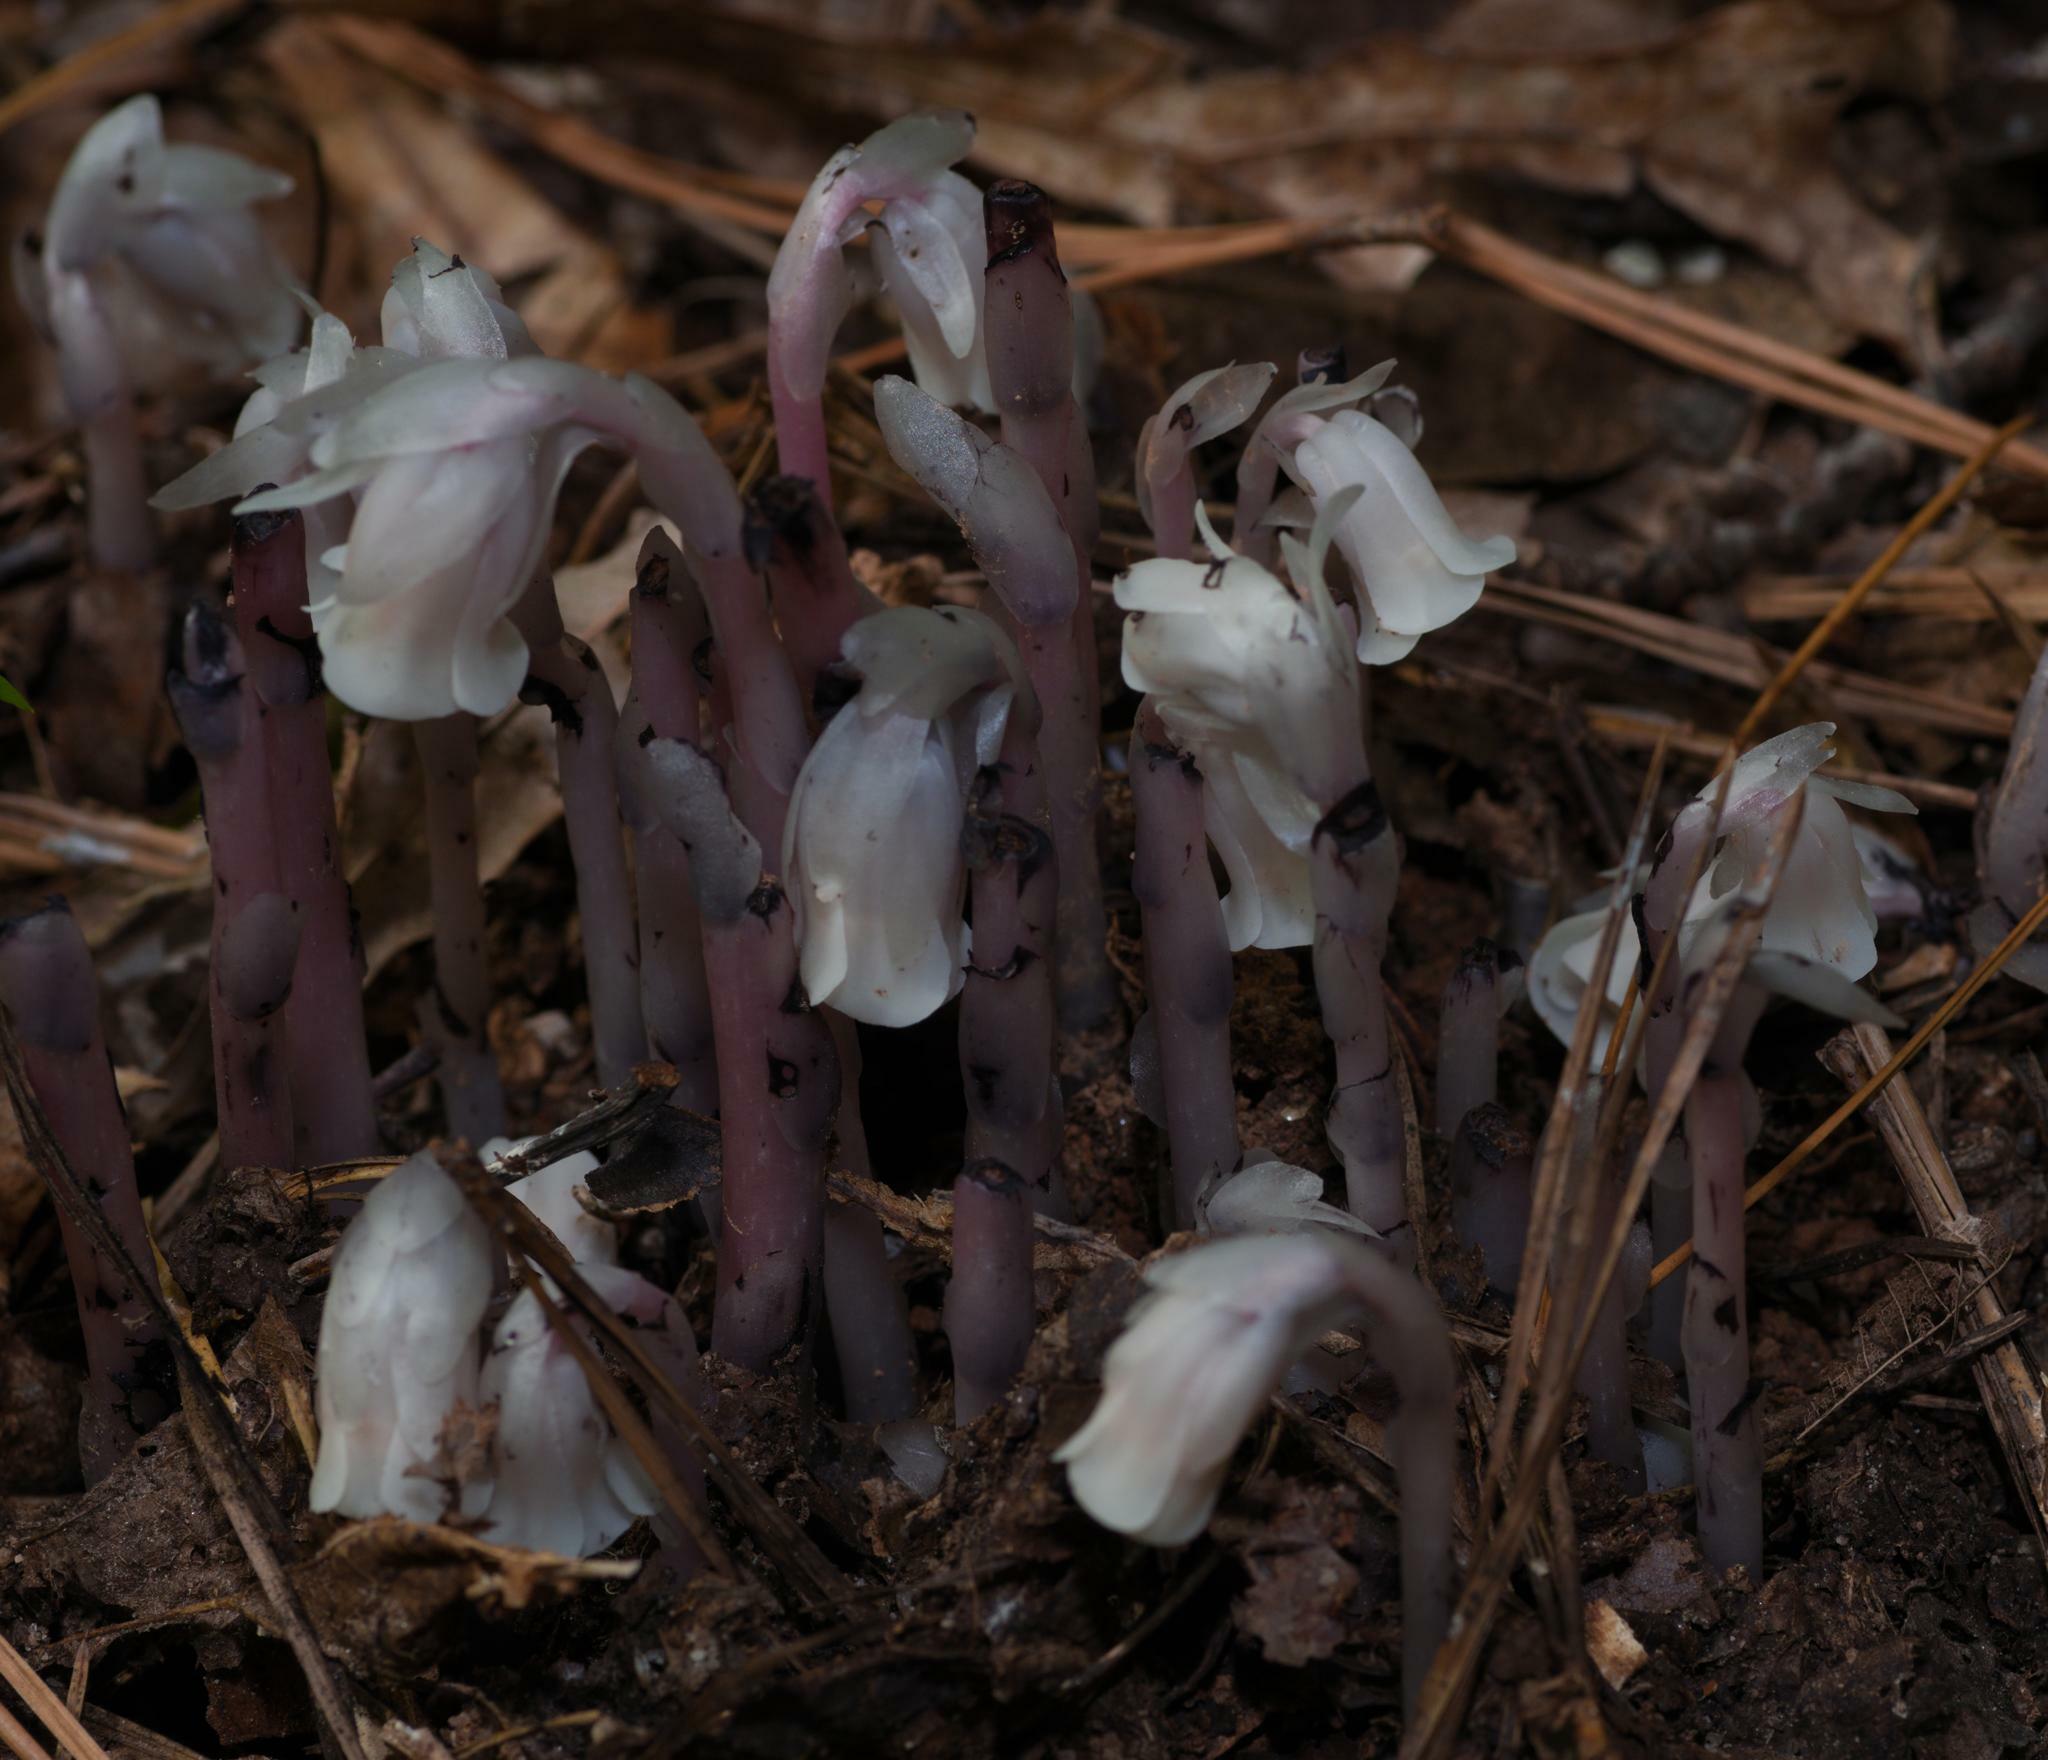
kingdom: Plantae
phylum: Tracheophyta
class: Magnoliopsida
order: Ericales
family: Ericaceae
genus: Monotropa
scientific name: Monotropa uniflora
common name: Convulsion root
